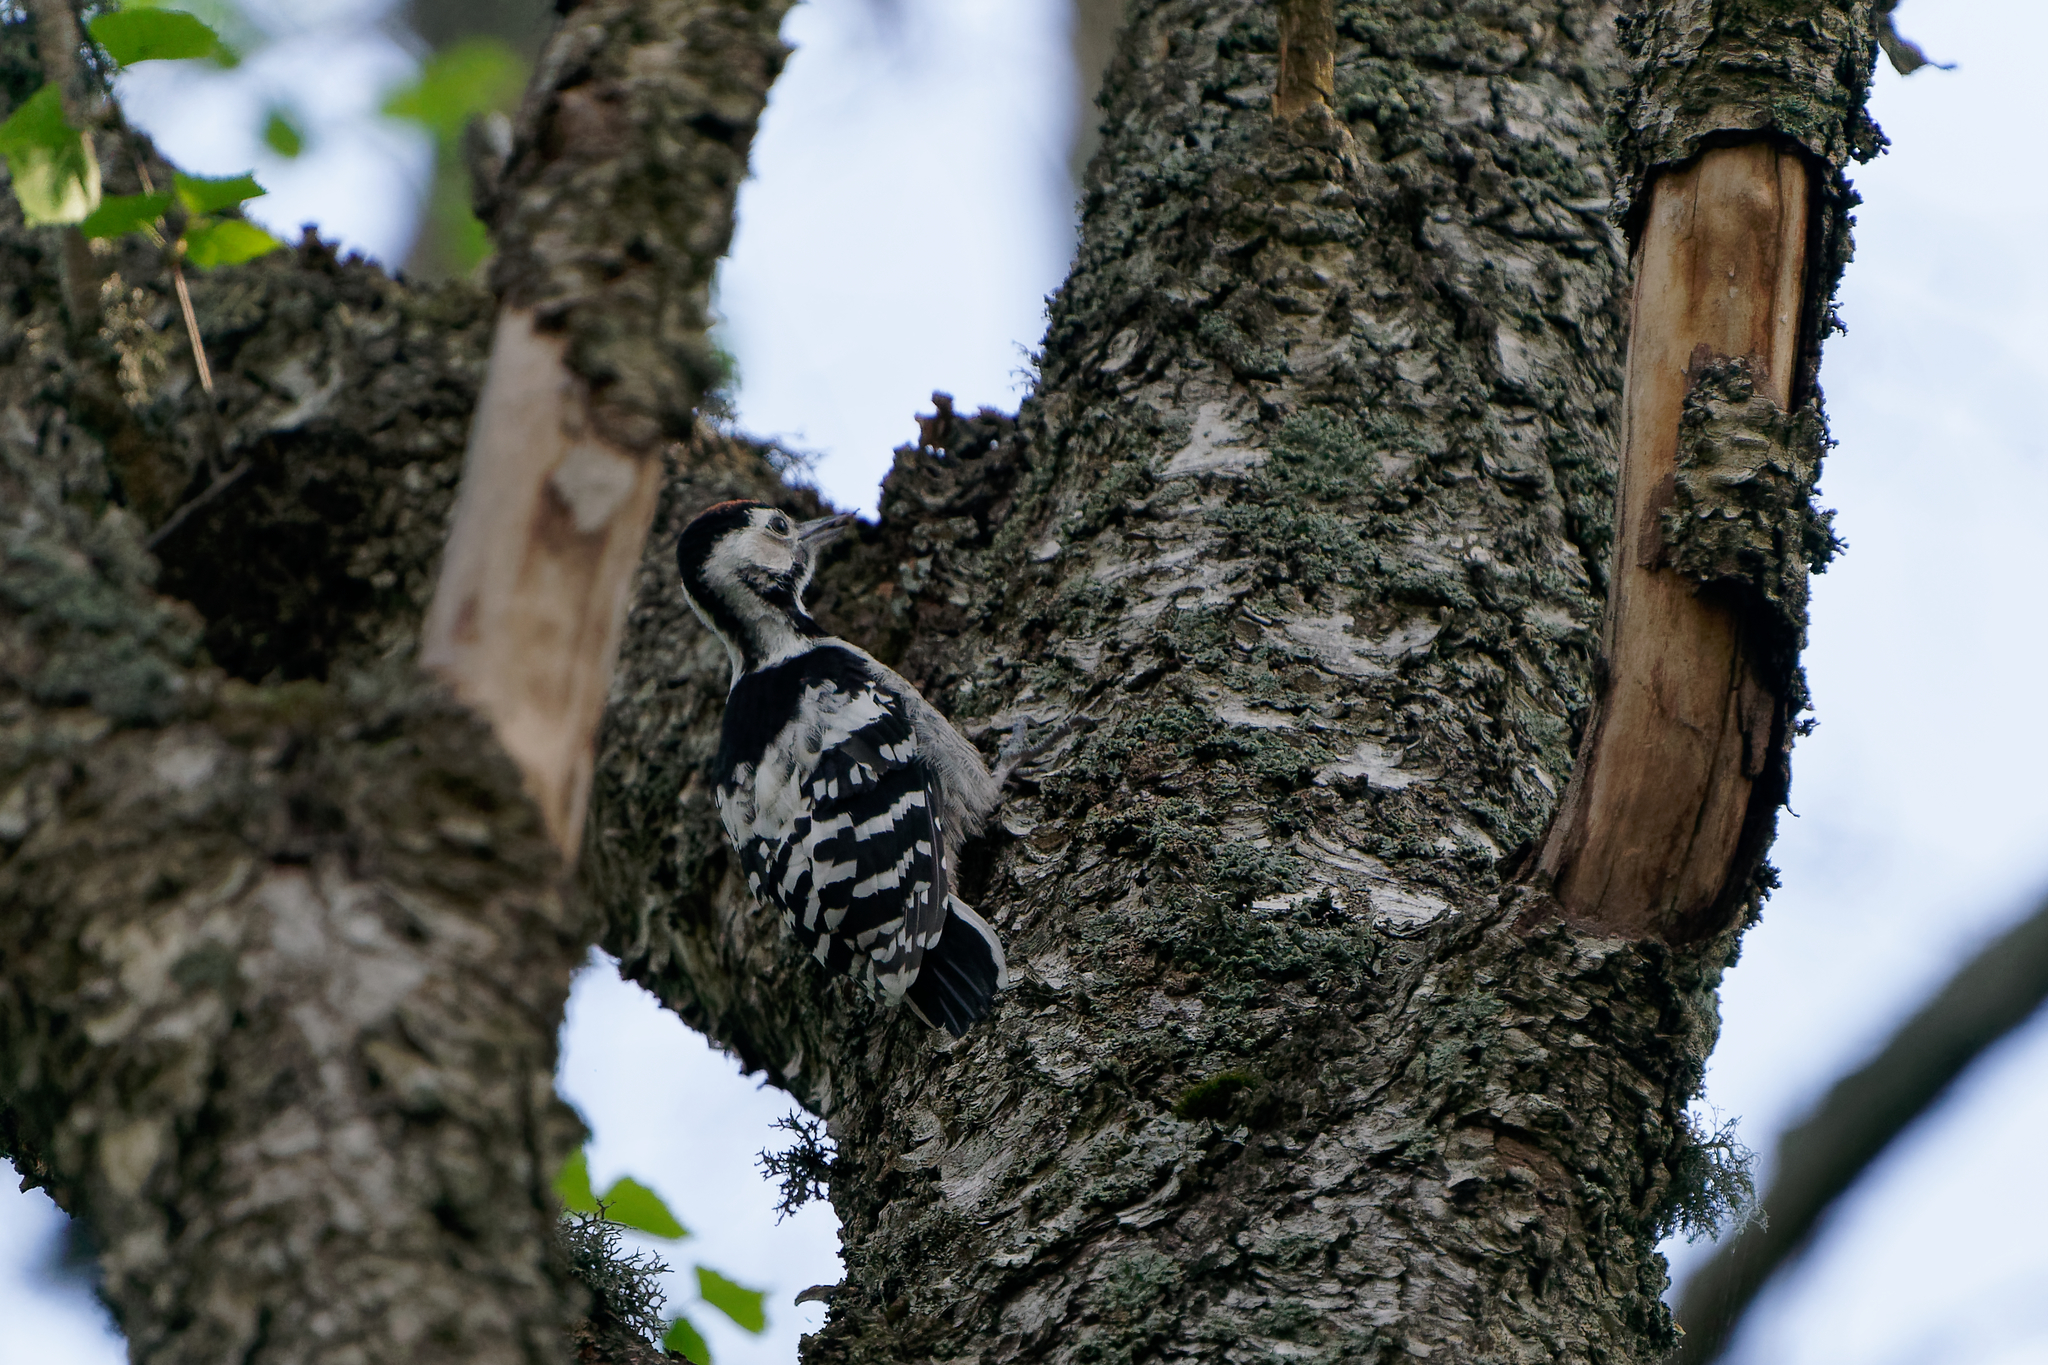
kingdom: Animalia
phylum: Chordata
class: Aves
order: Piciformes
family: Picidae
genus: Dendrocopos
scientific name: Dendrocopos leucotos
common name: White-backed woodpecker
